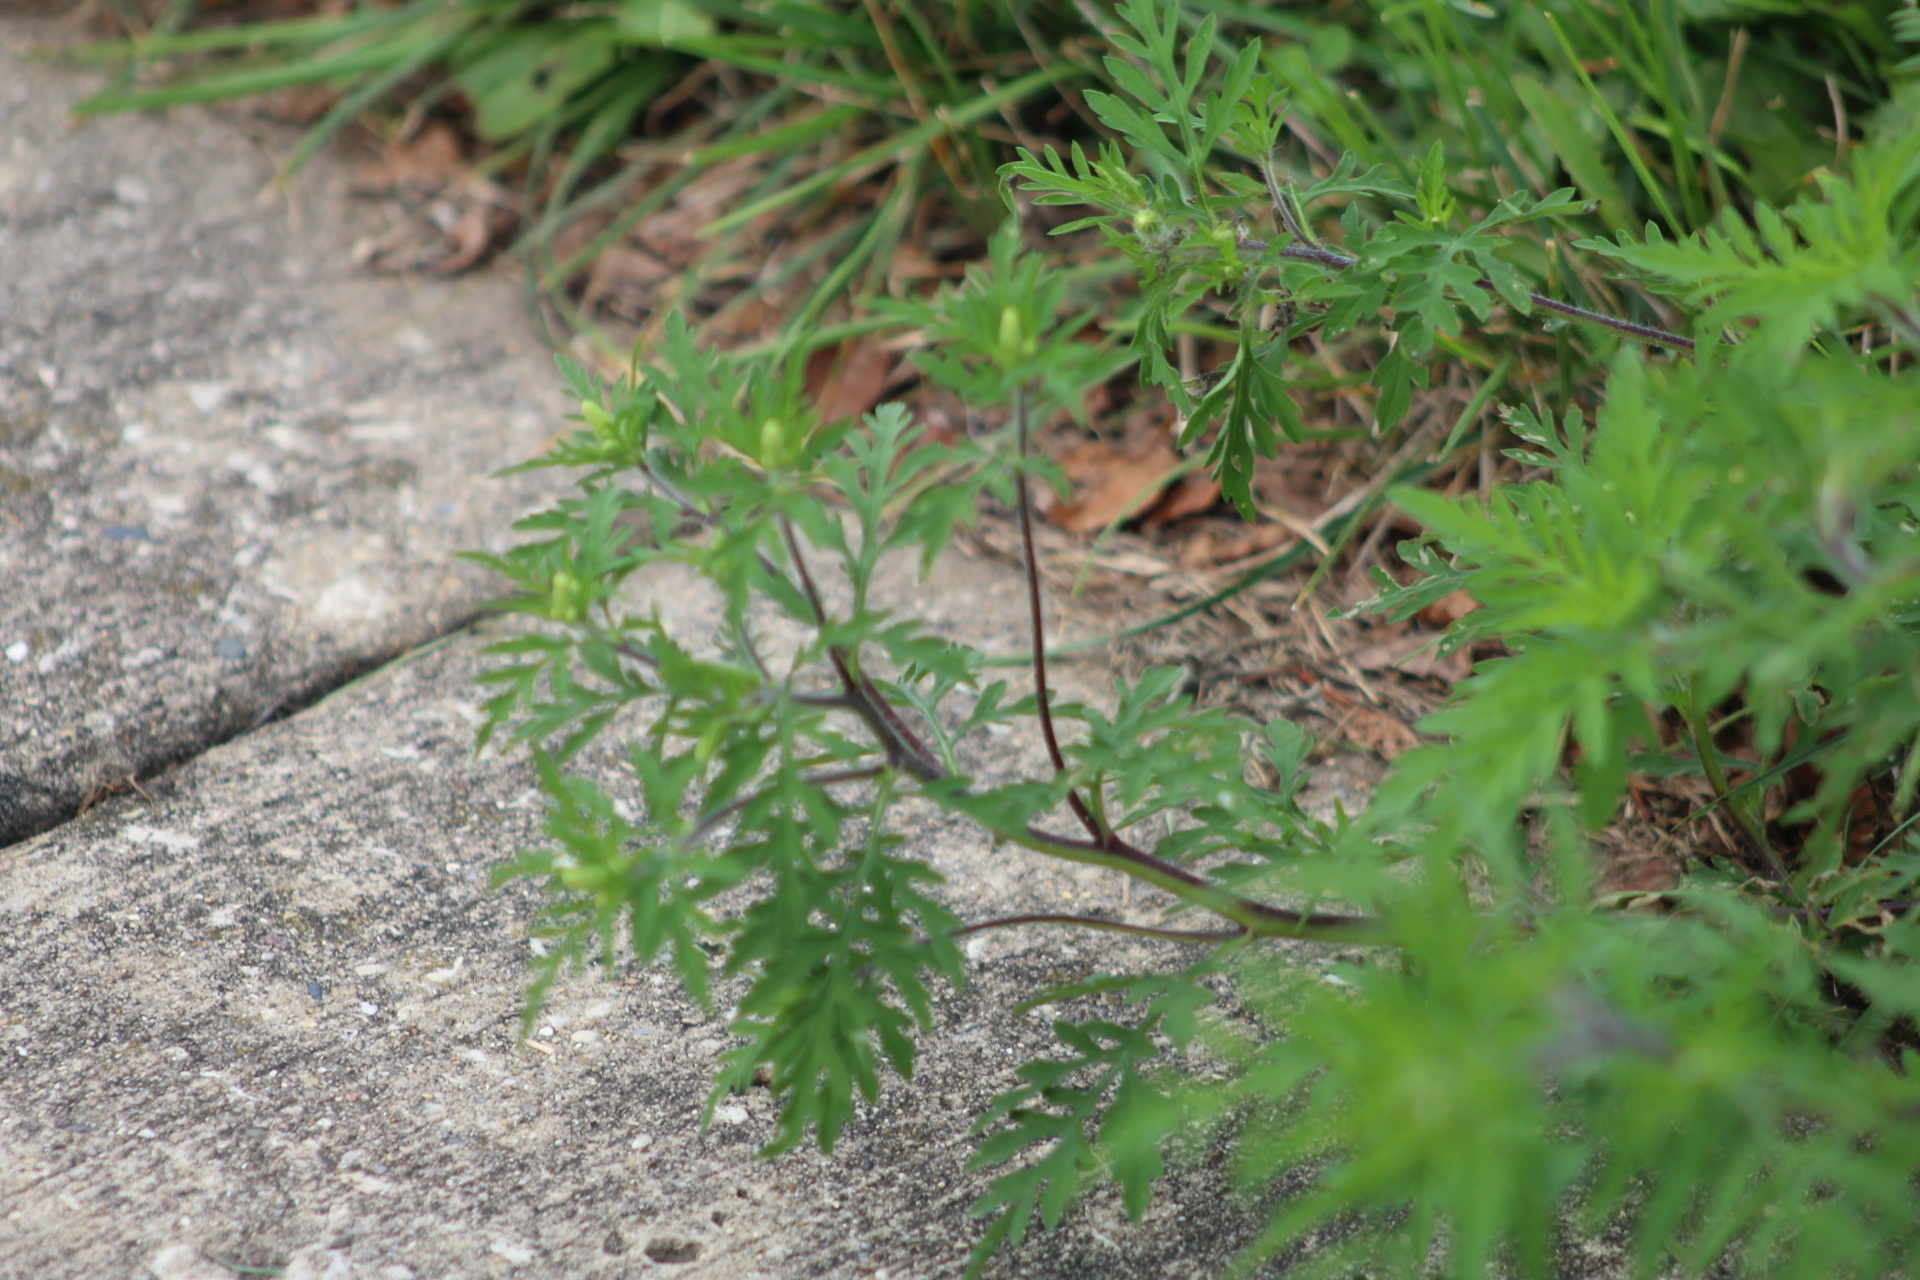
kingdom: Plantae
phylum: Tracheophyta
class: Magnoliopsida
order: Asterales
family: Asteraceae
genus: Ambrosia
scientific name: Ambrosia artemisiifolia
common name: Annual ragweed
